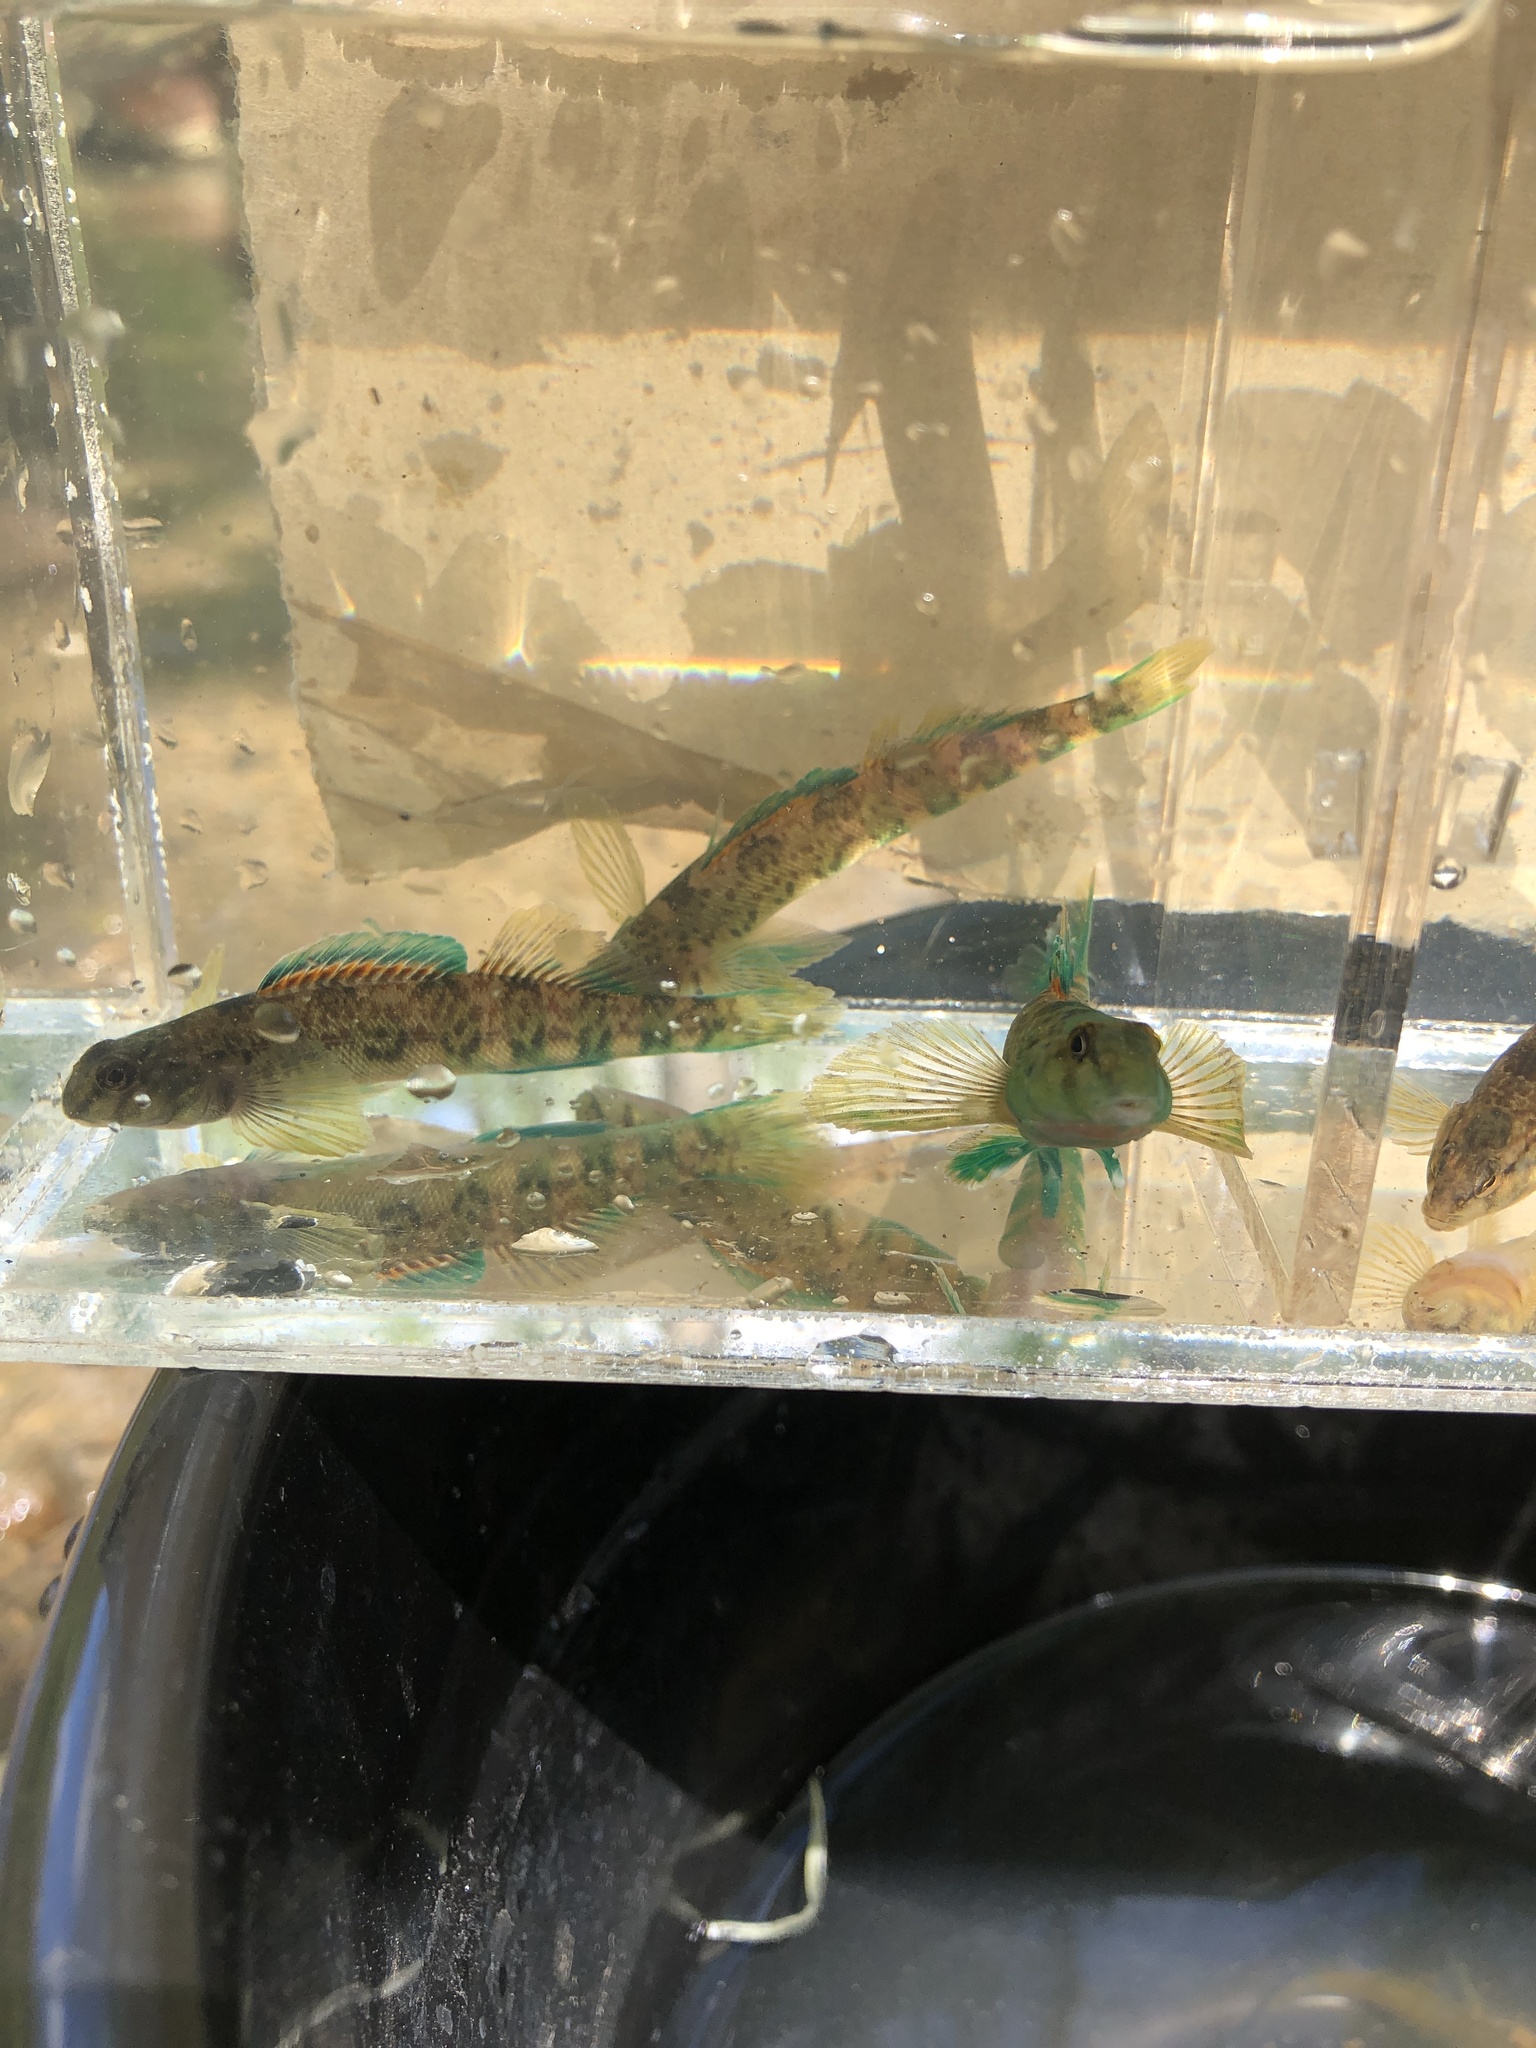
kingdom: Animalia
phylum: Chordata
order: Perciformes
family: Percidae
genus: Etheostoma
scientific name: Etheostoma blennioides
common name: Greenside darter
